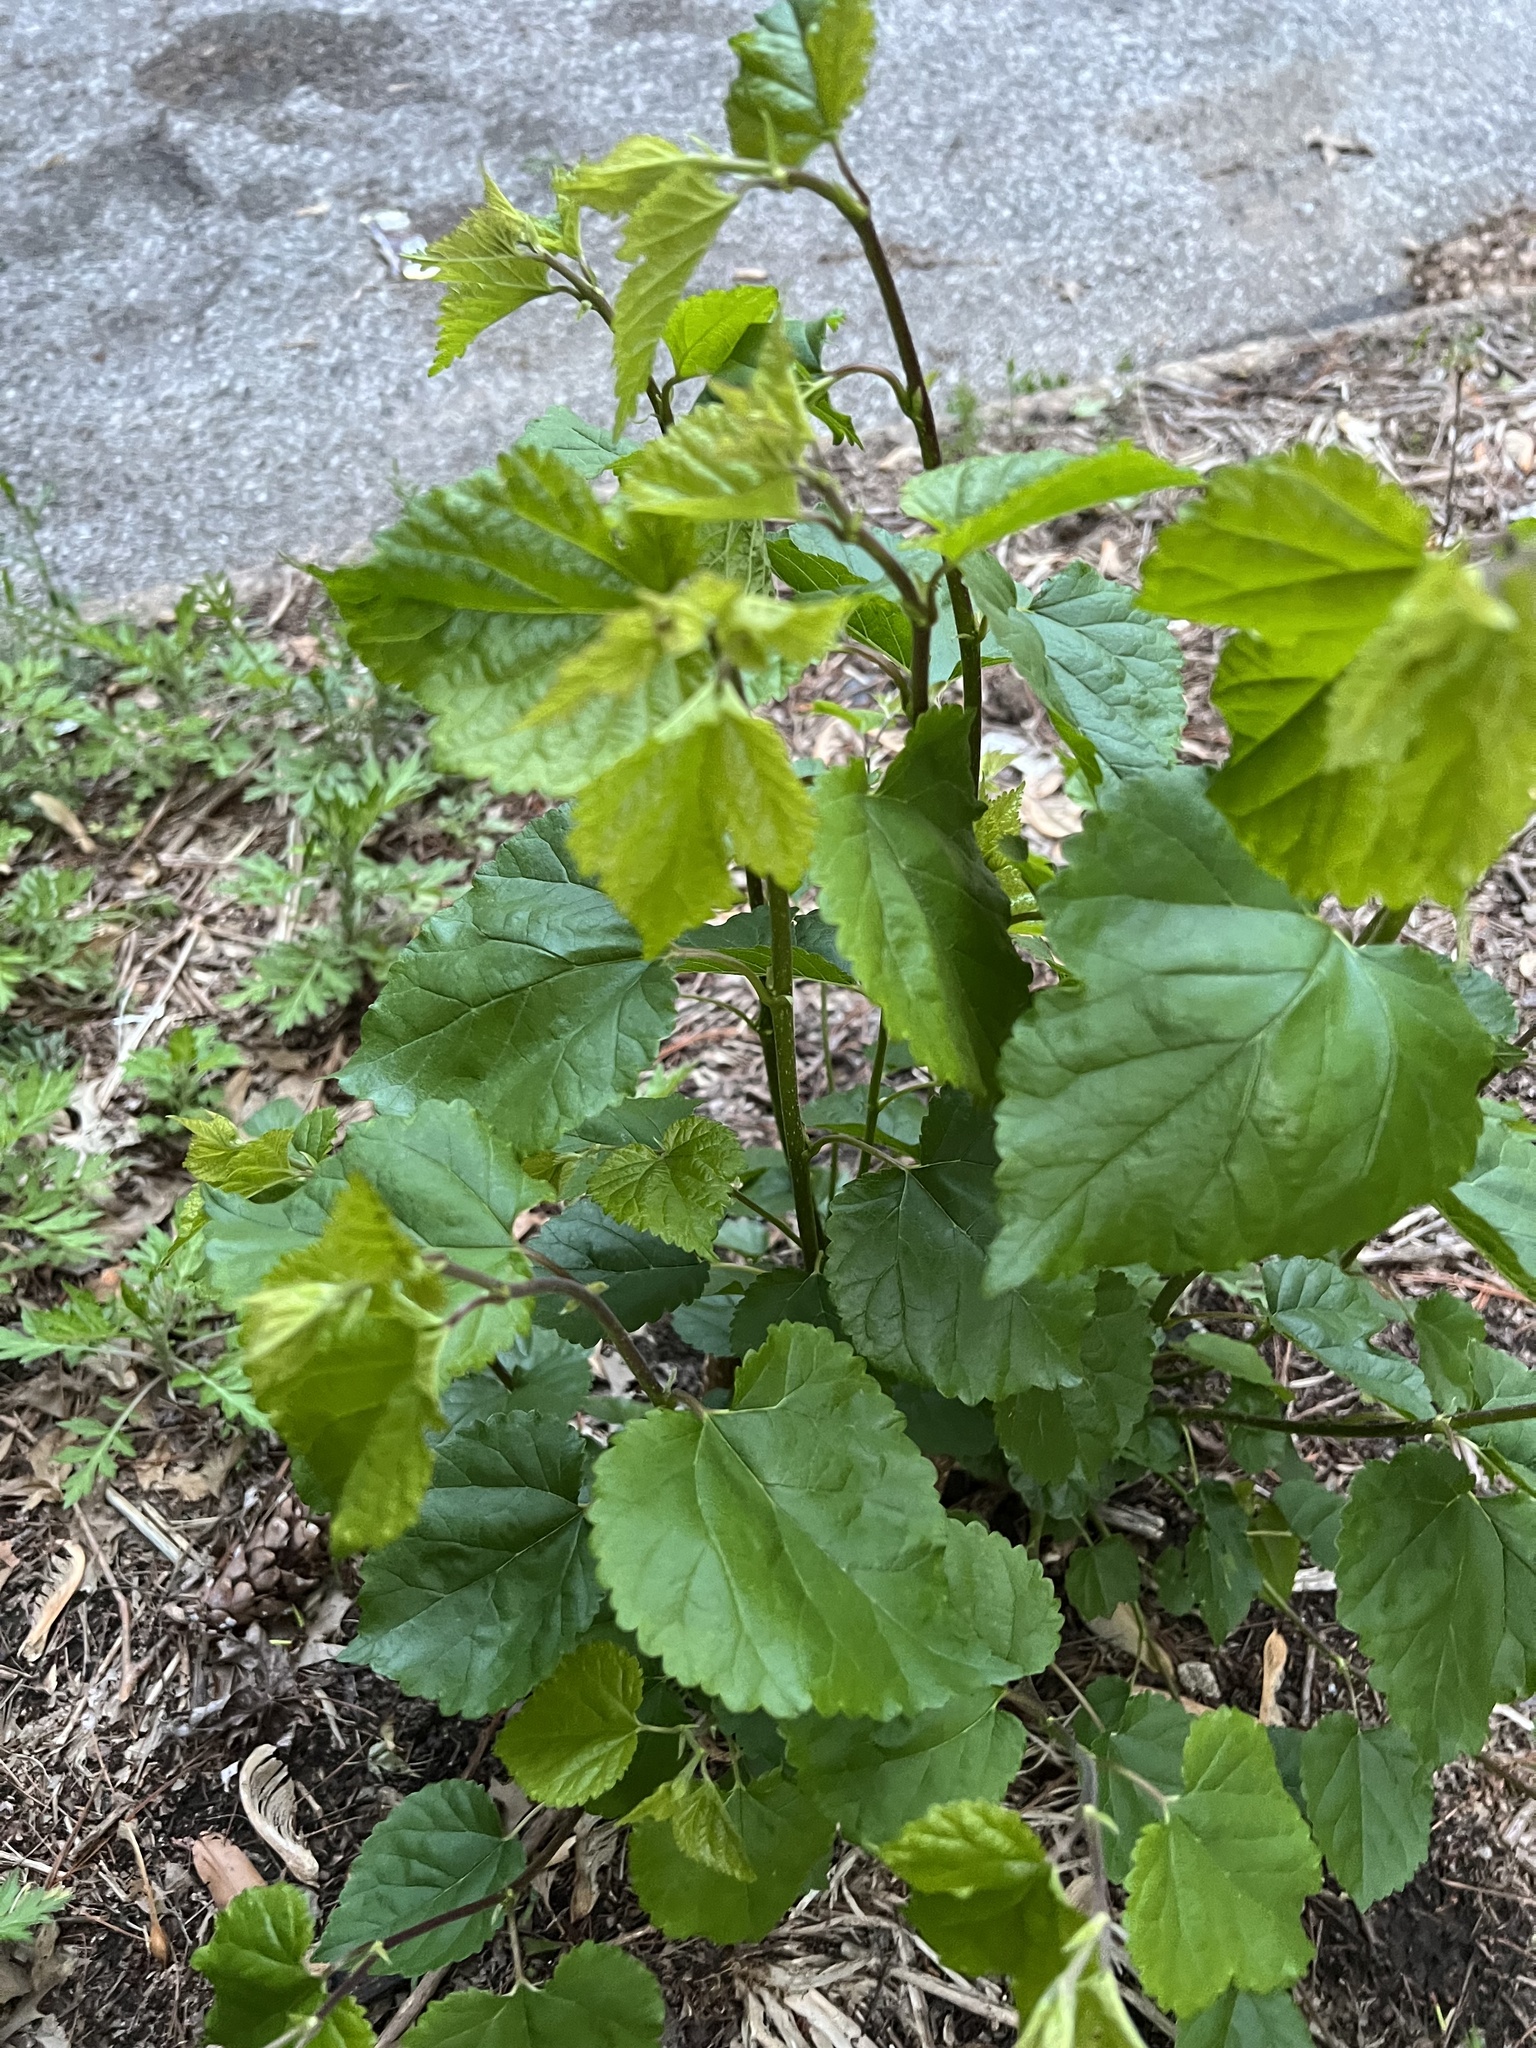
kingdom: Plantae
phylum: Tracheophyta
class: Magnoliopsida
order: Rosales
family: Moraceae
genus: Morus
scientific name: Morus alba
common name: White mulberry
